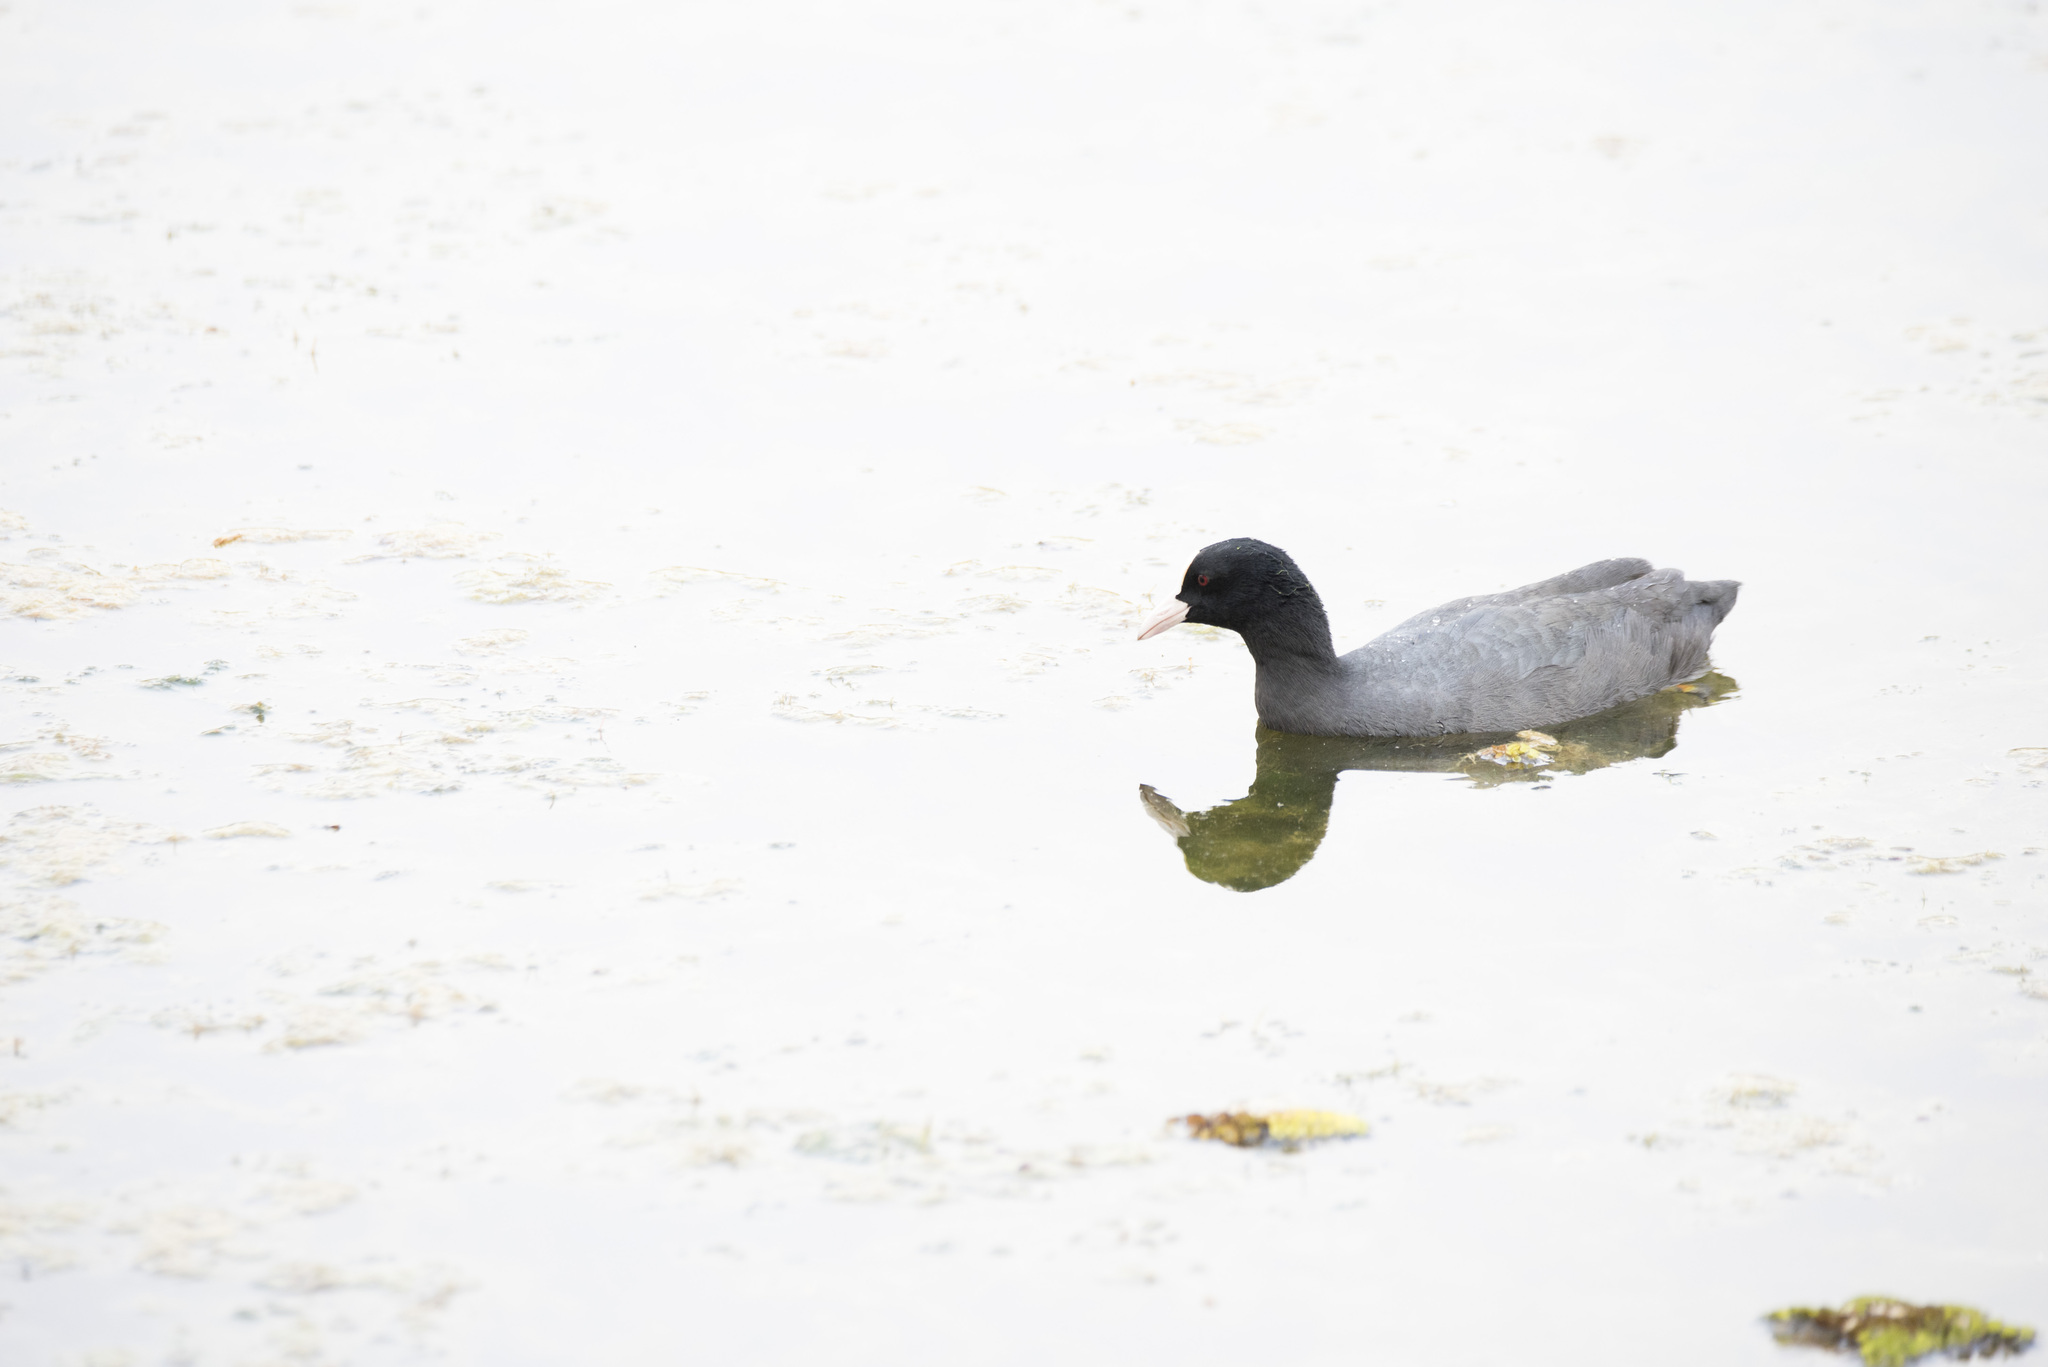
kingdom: Animalia
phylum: Chordata
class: Aves
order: Gruiformes
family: Rallidae
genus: Fulica
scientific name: Fulica atra
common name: Eurasian coot
